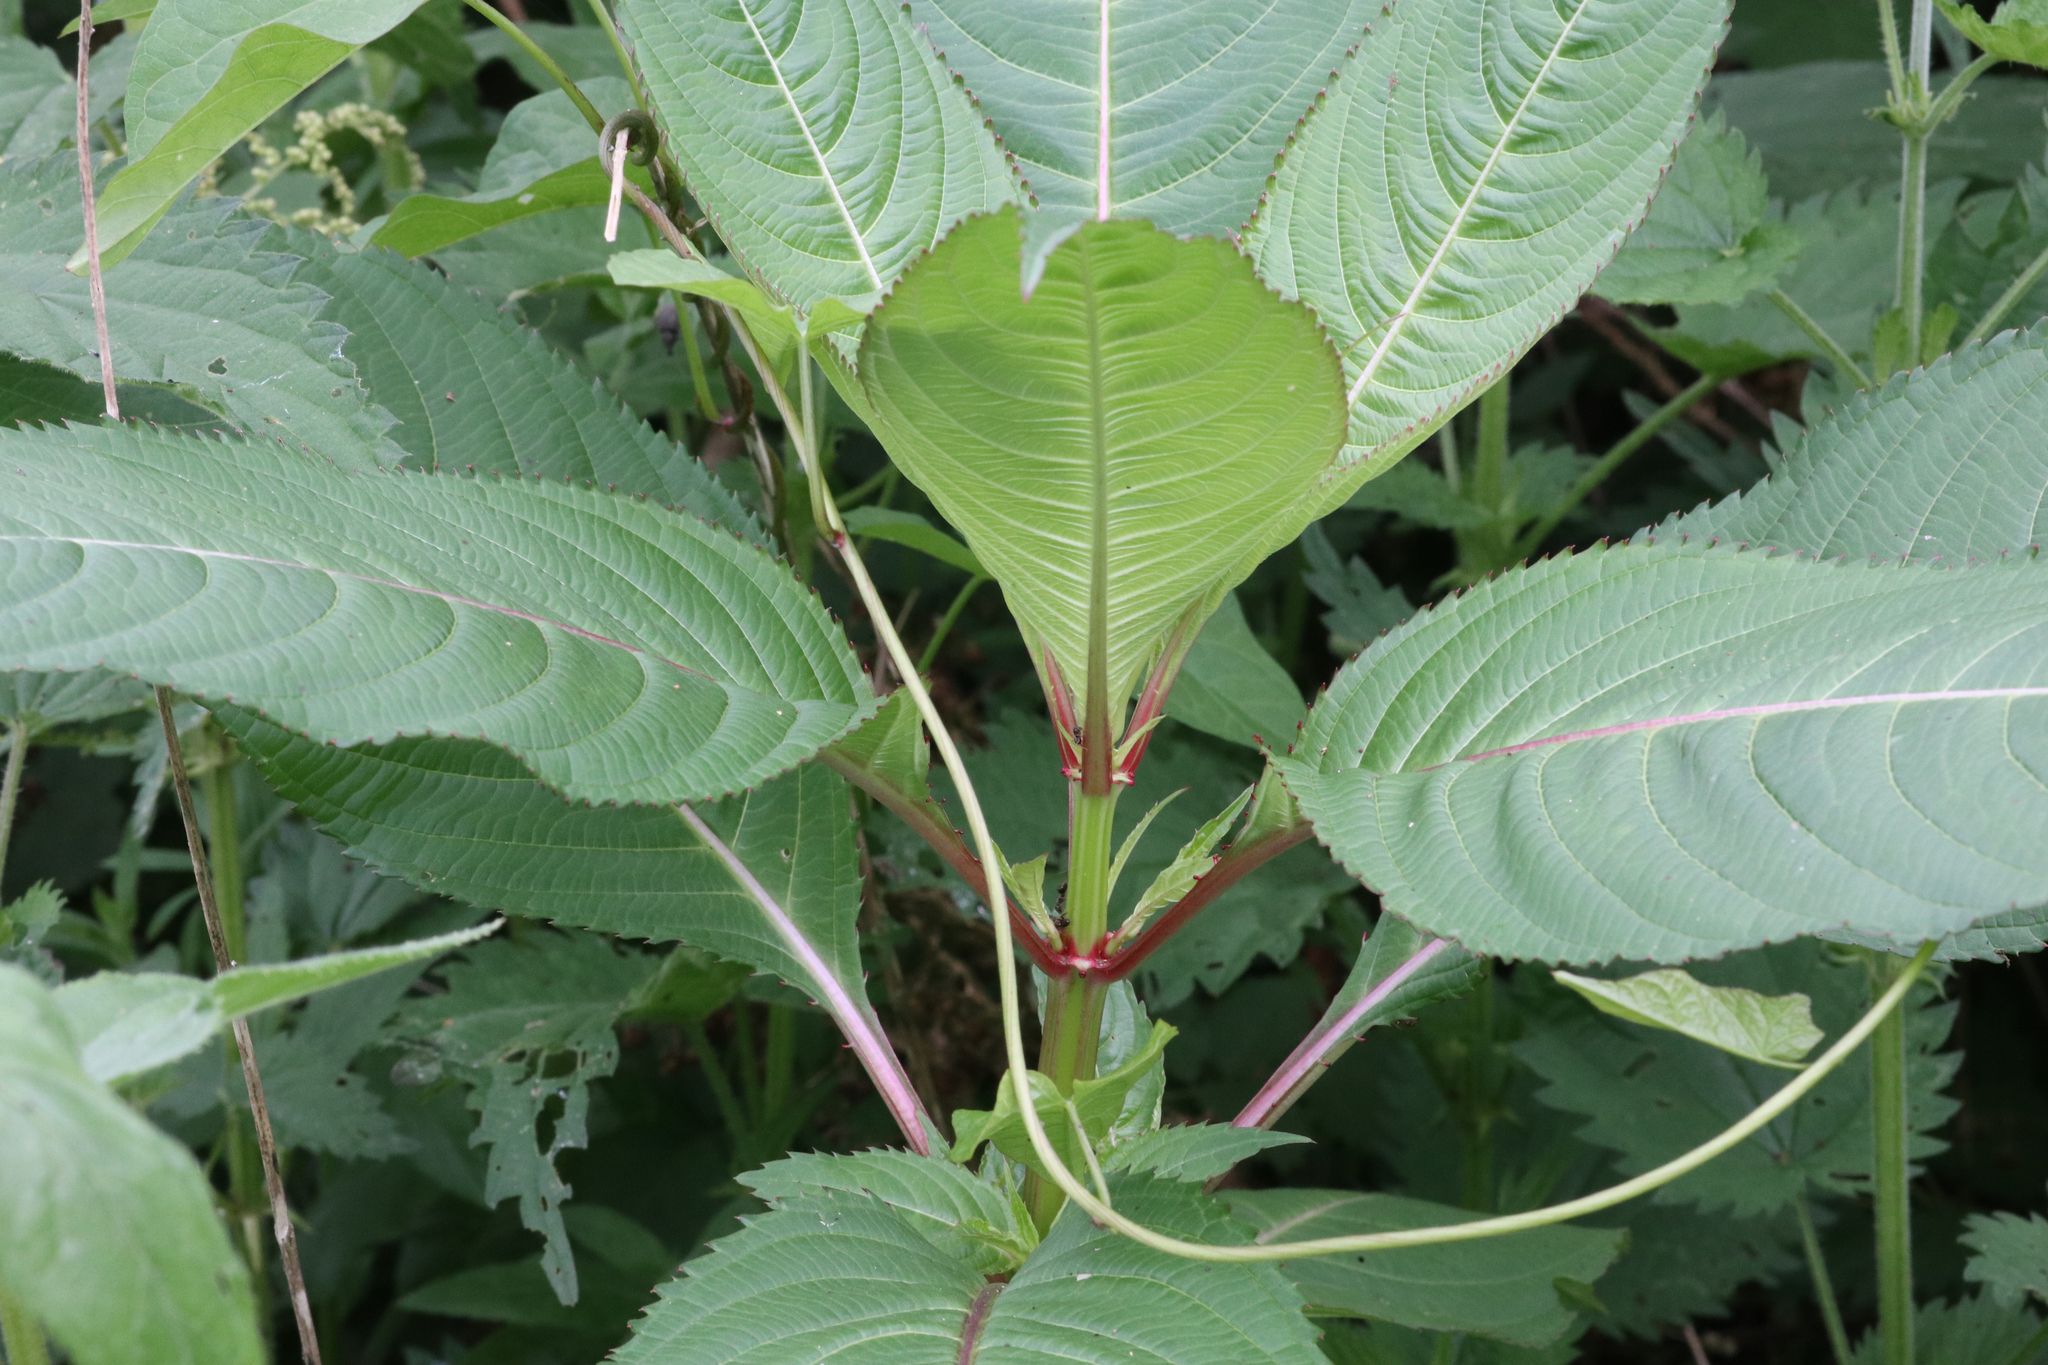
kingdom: Plantae
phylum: Tracheophyta
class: Magnoliopsida
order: Ericales
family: Balsaminaceae
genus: Impatiens
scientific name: Impatiens glandulifera
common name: Himalayan balsam
